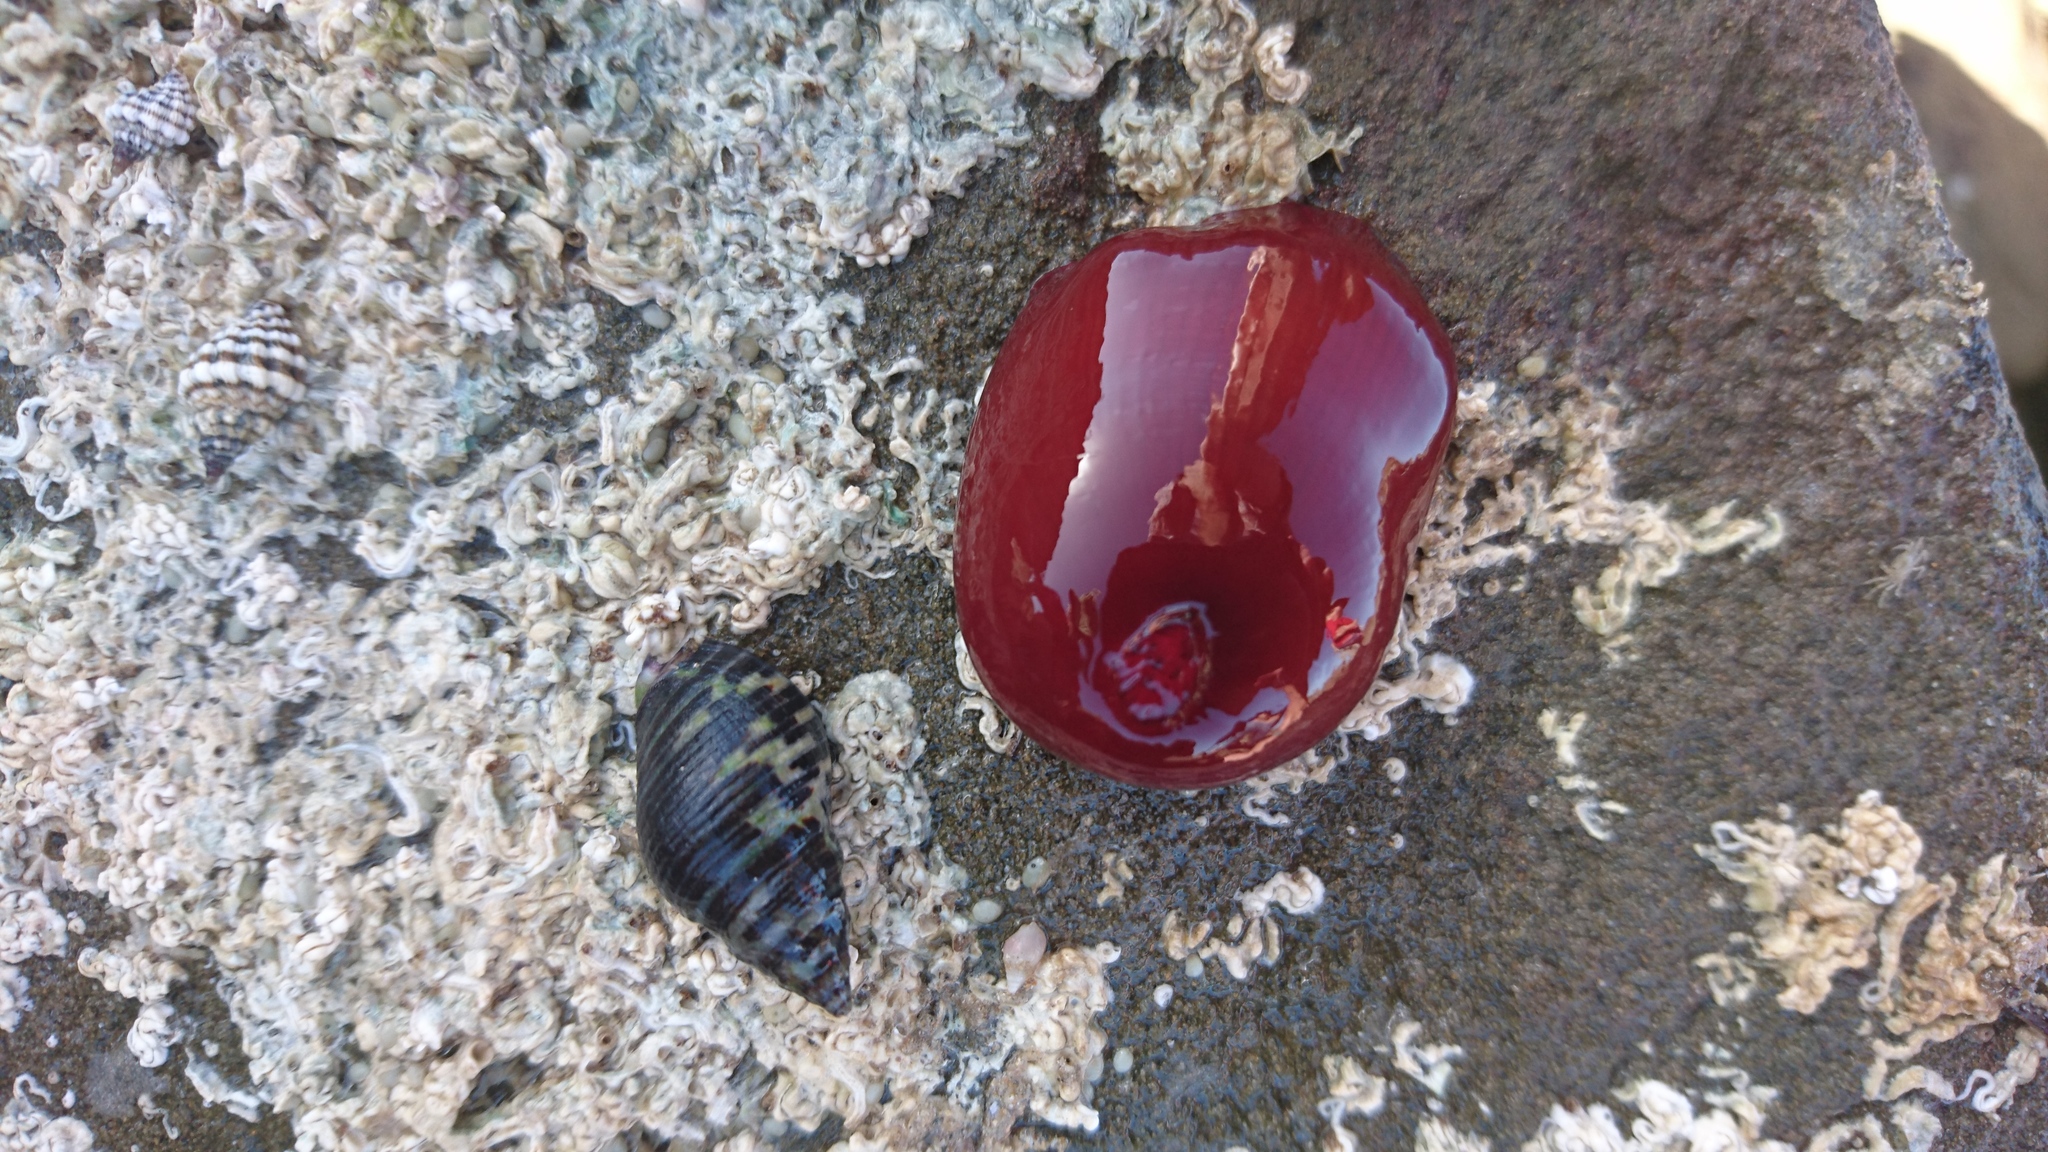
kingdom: Animalia
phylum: Cnidaria
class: Anthozoa
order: Actiniaria
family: Actiniidae
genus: Actinia
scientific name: Actinia tenebrosa
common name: Waratah anemone
